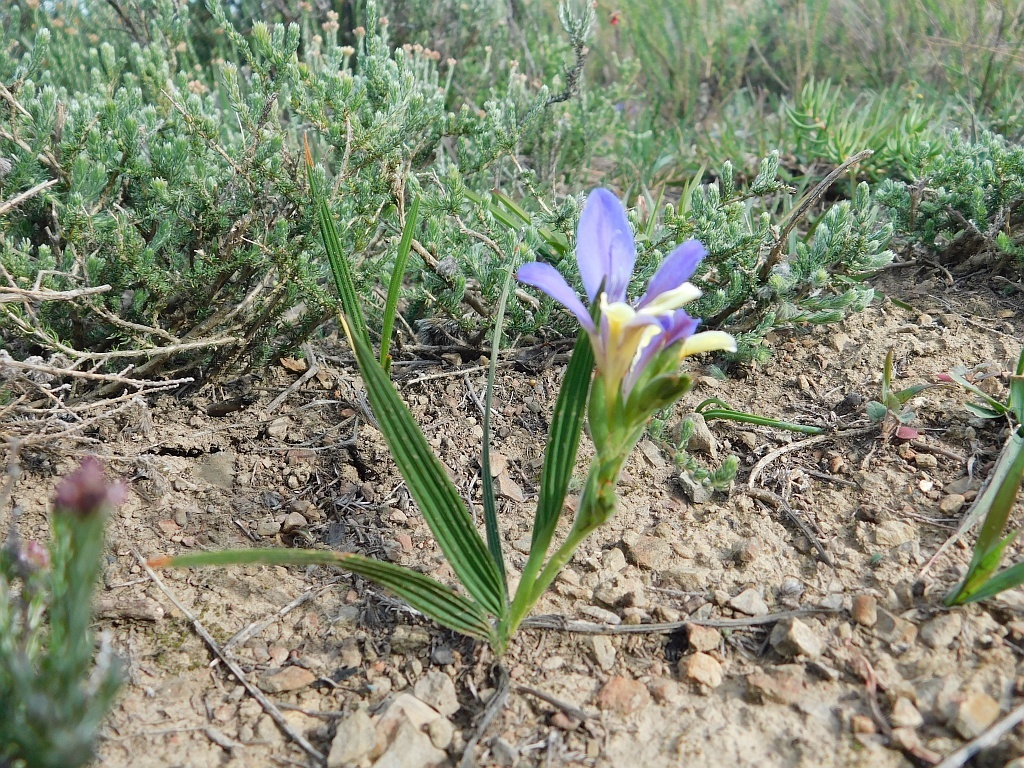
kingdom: Plantae
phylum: Tracheophyta
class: Liliopsida
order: Asparagales
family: Iridaceae
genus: Babiana
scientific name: Babiana patula
